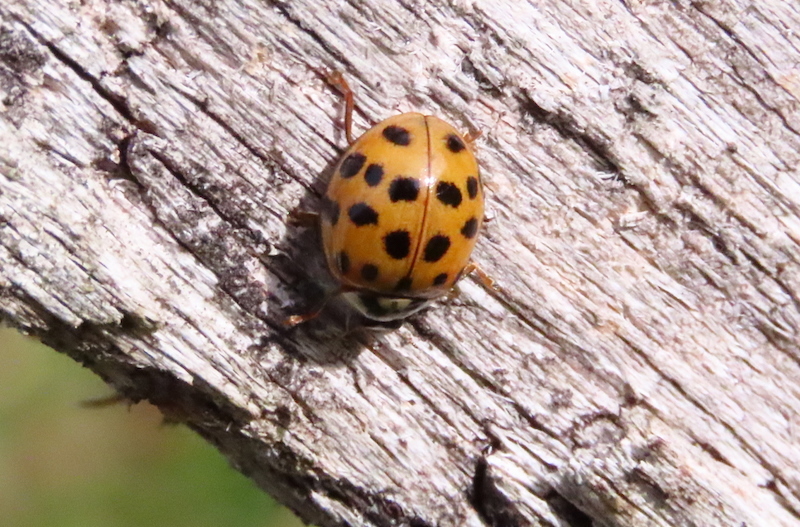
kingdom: Animalia
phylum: Arthropoda
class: Insecta
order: Coleoptera
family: Coccinellidae
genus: Harmonia
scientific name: Harmonia axyridis
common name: Harlequin ladybird
